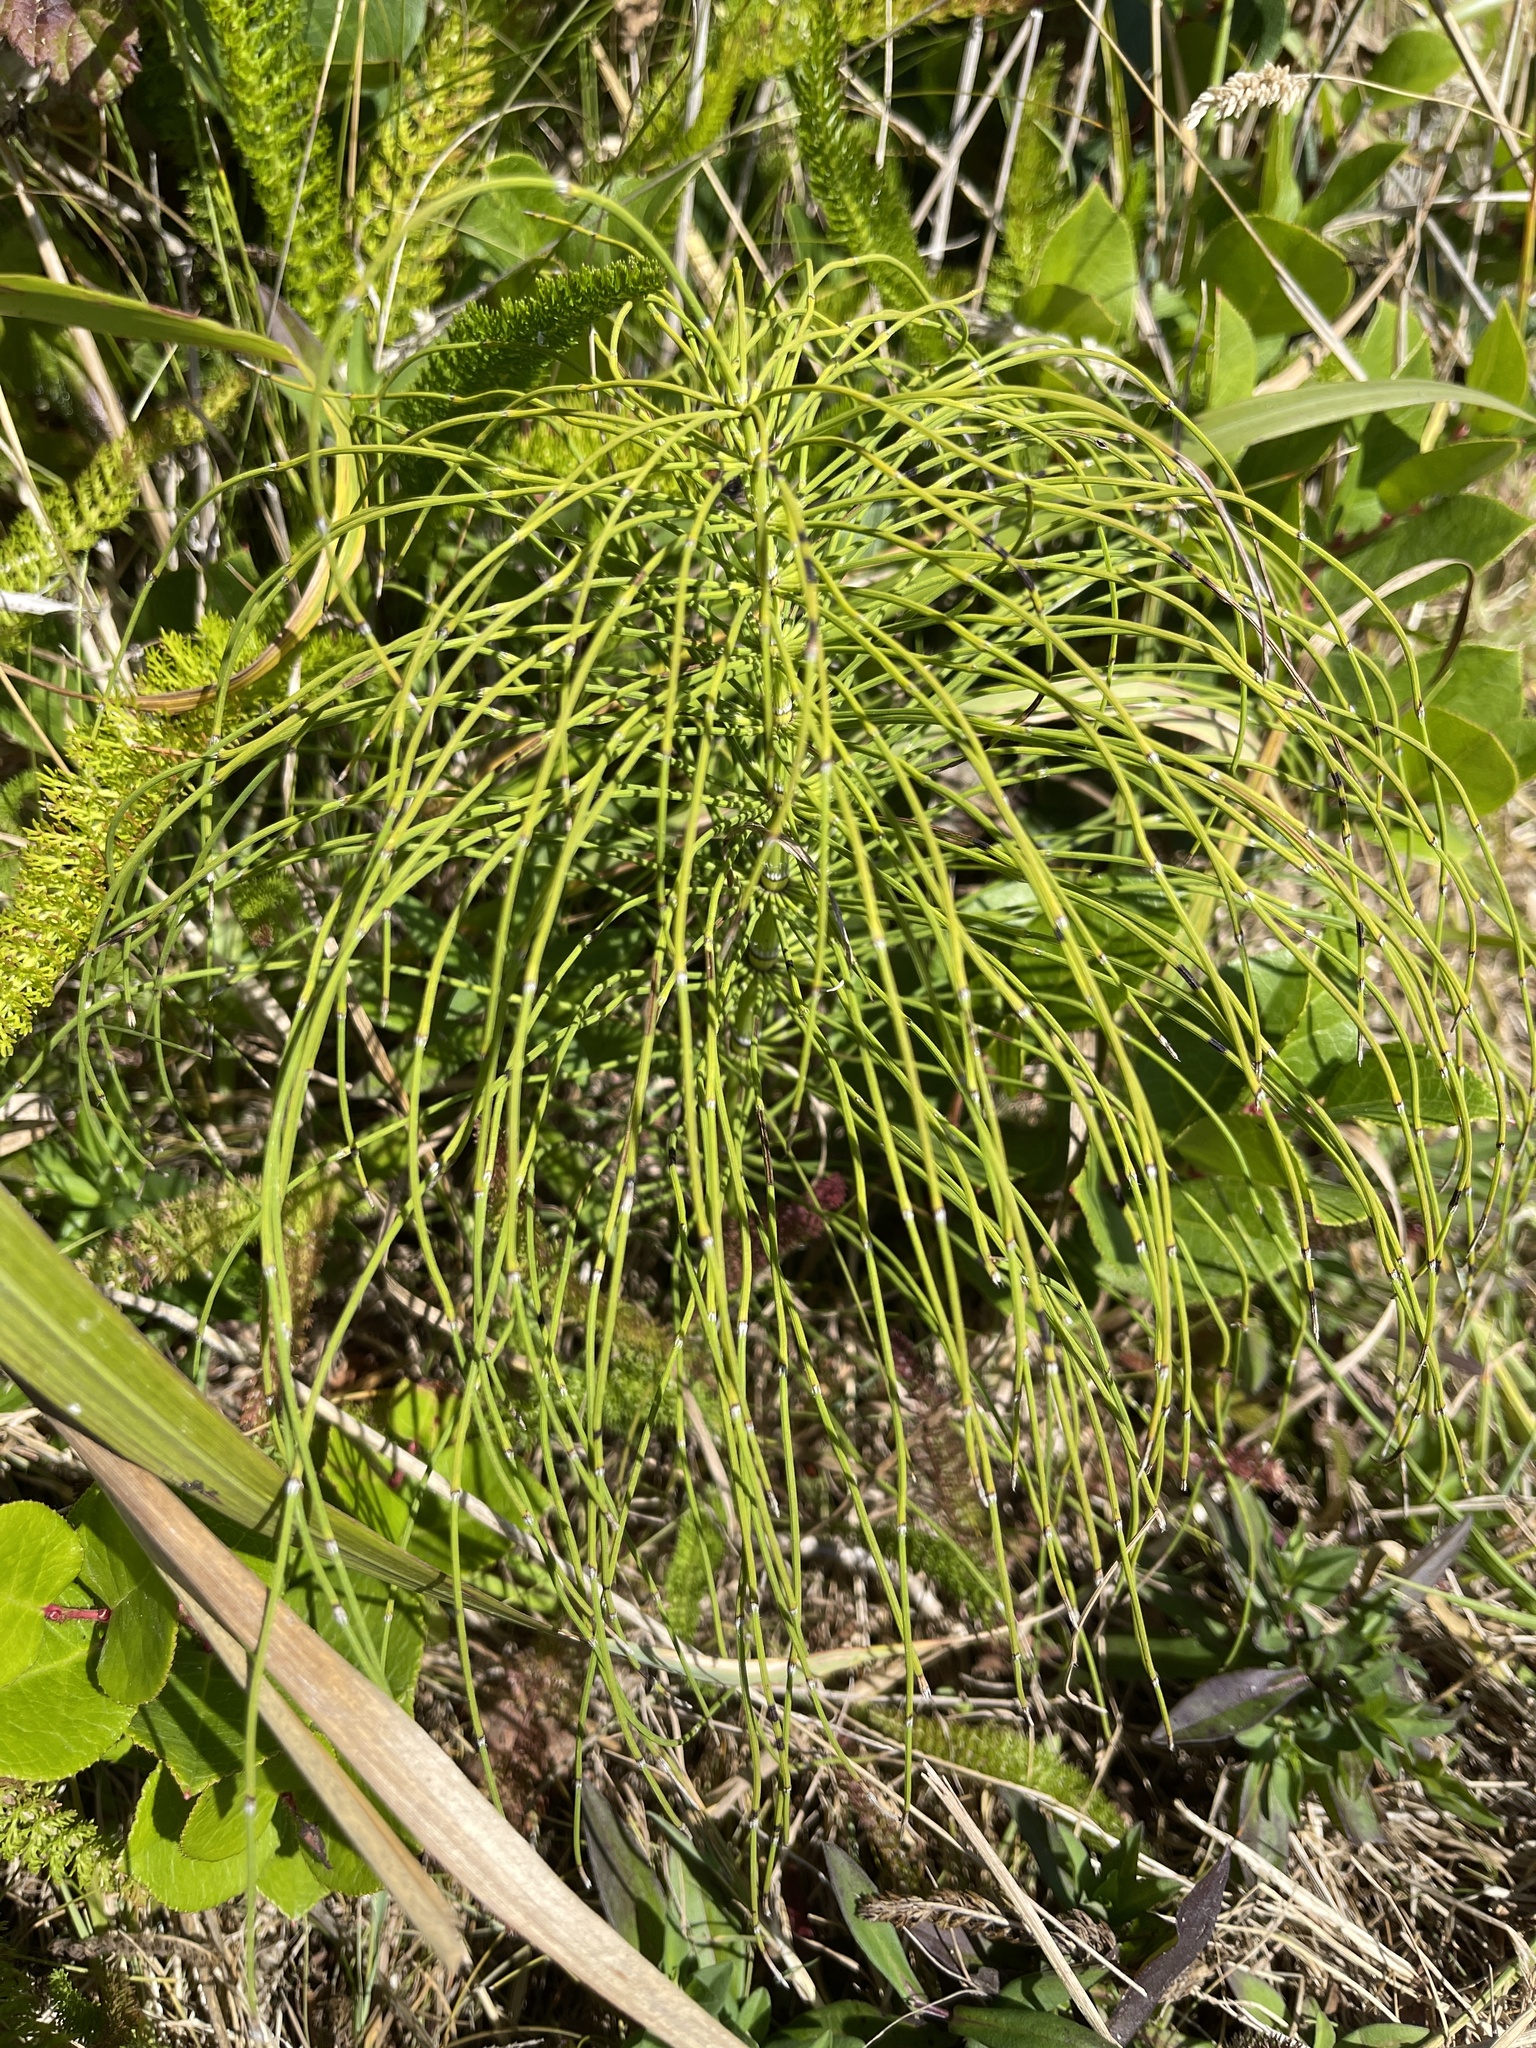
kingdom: Plantae
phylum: Tracheophyta
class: Polypodiopsida
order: Equisetales
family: Equisetaceae
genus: Equisetum
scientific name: Equisetum telmateia
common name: Great horsetail
